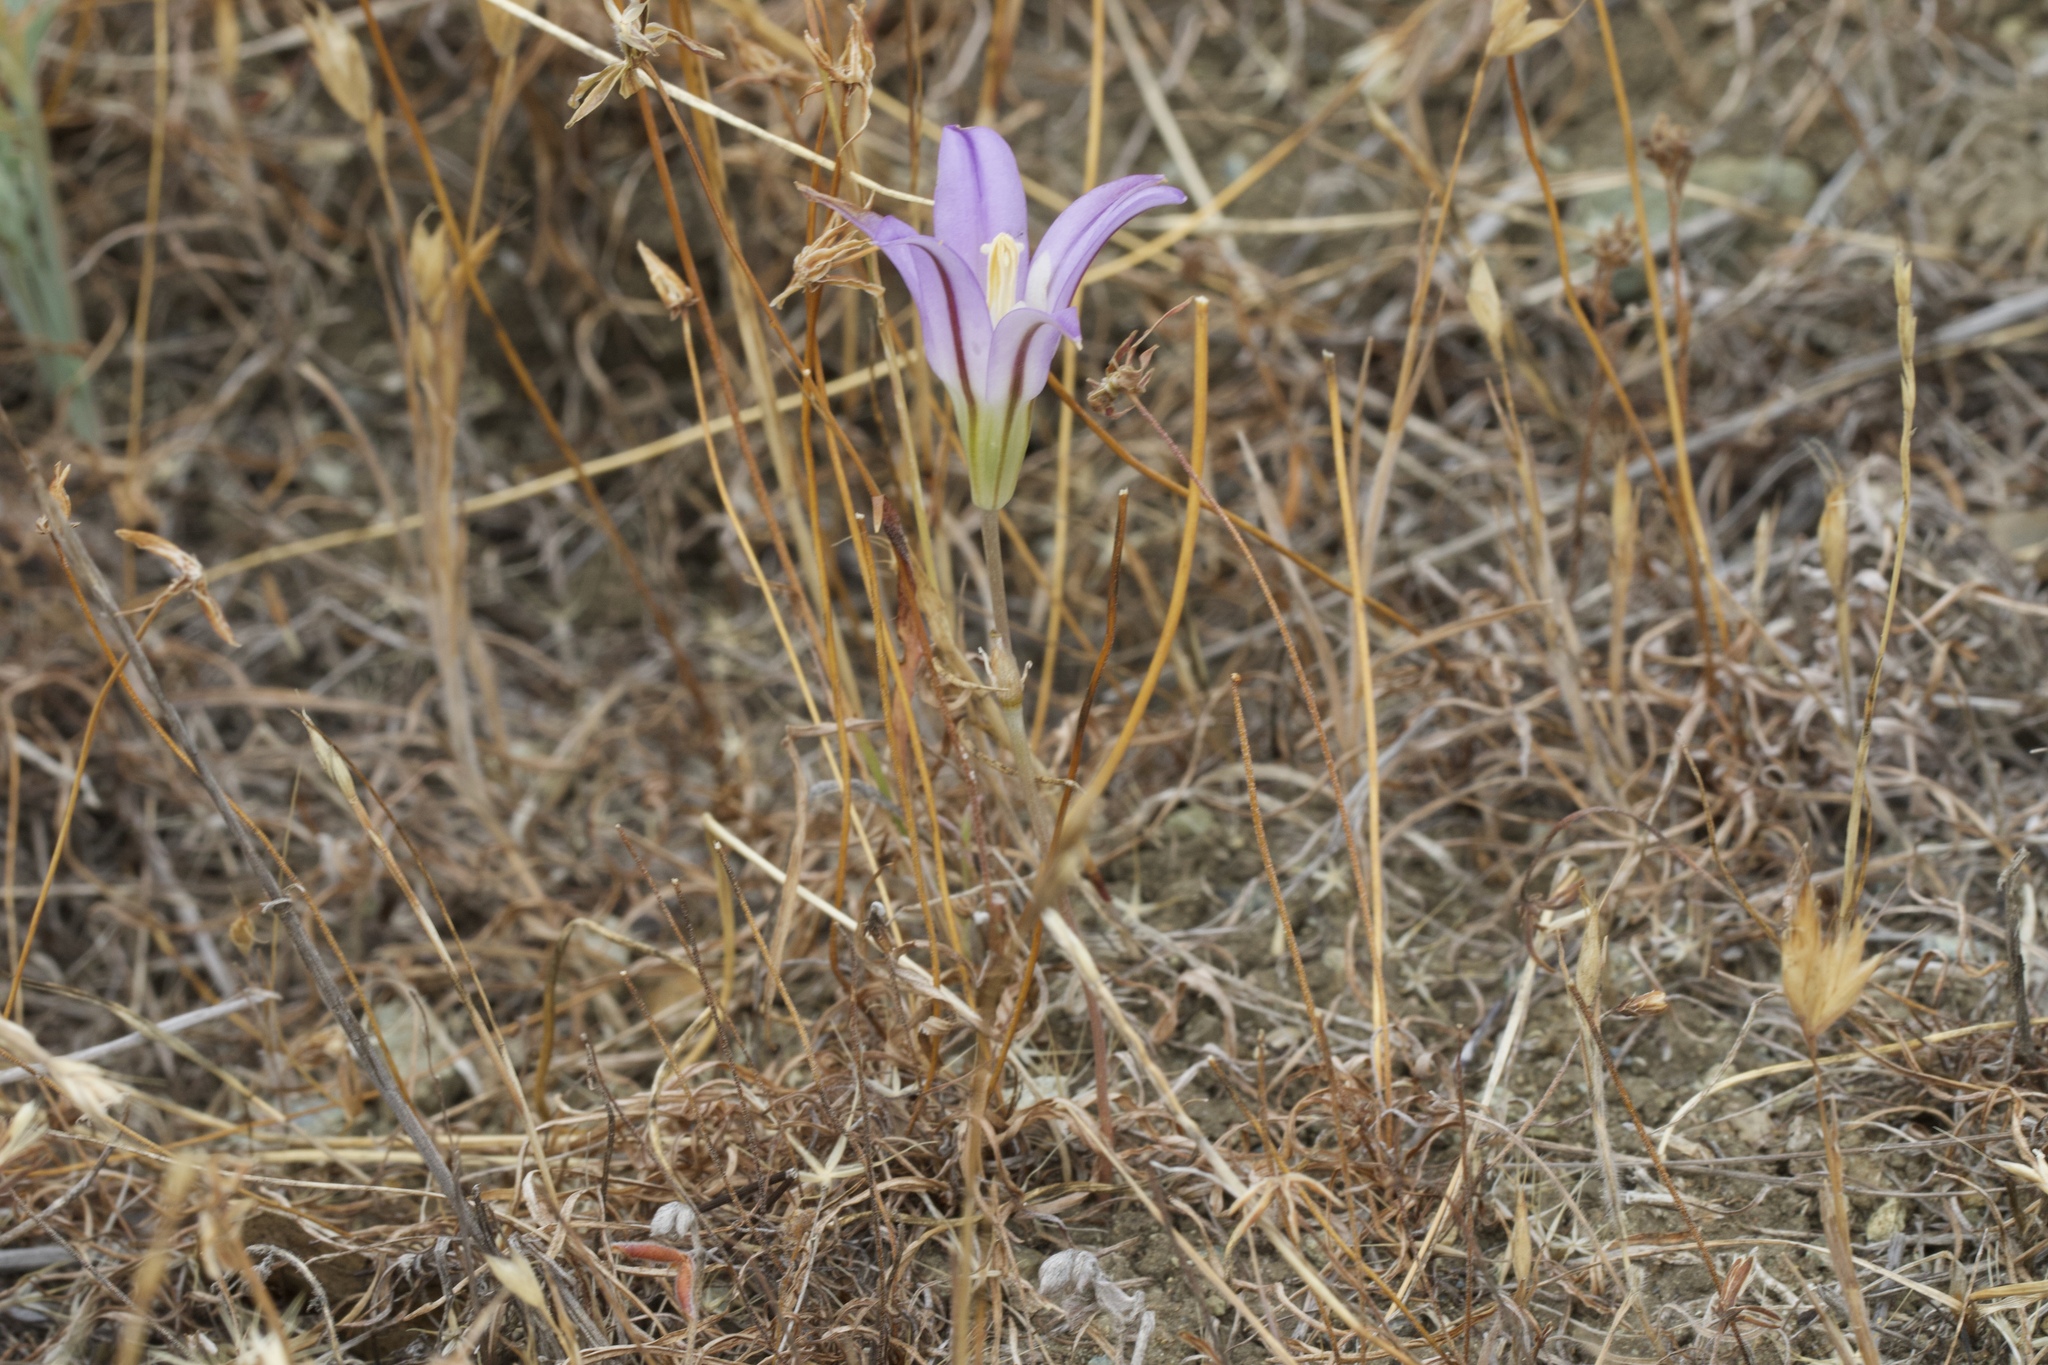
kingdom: Plantae
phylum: Tracheophyta
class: Liliopsida
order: Asparagales
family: Asparagaceae
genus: Brodiaea
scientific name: Brodiaea elegans
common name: Elegant cluster-lily
